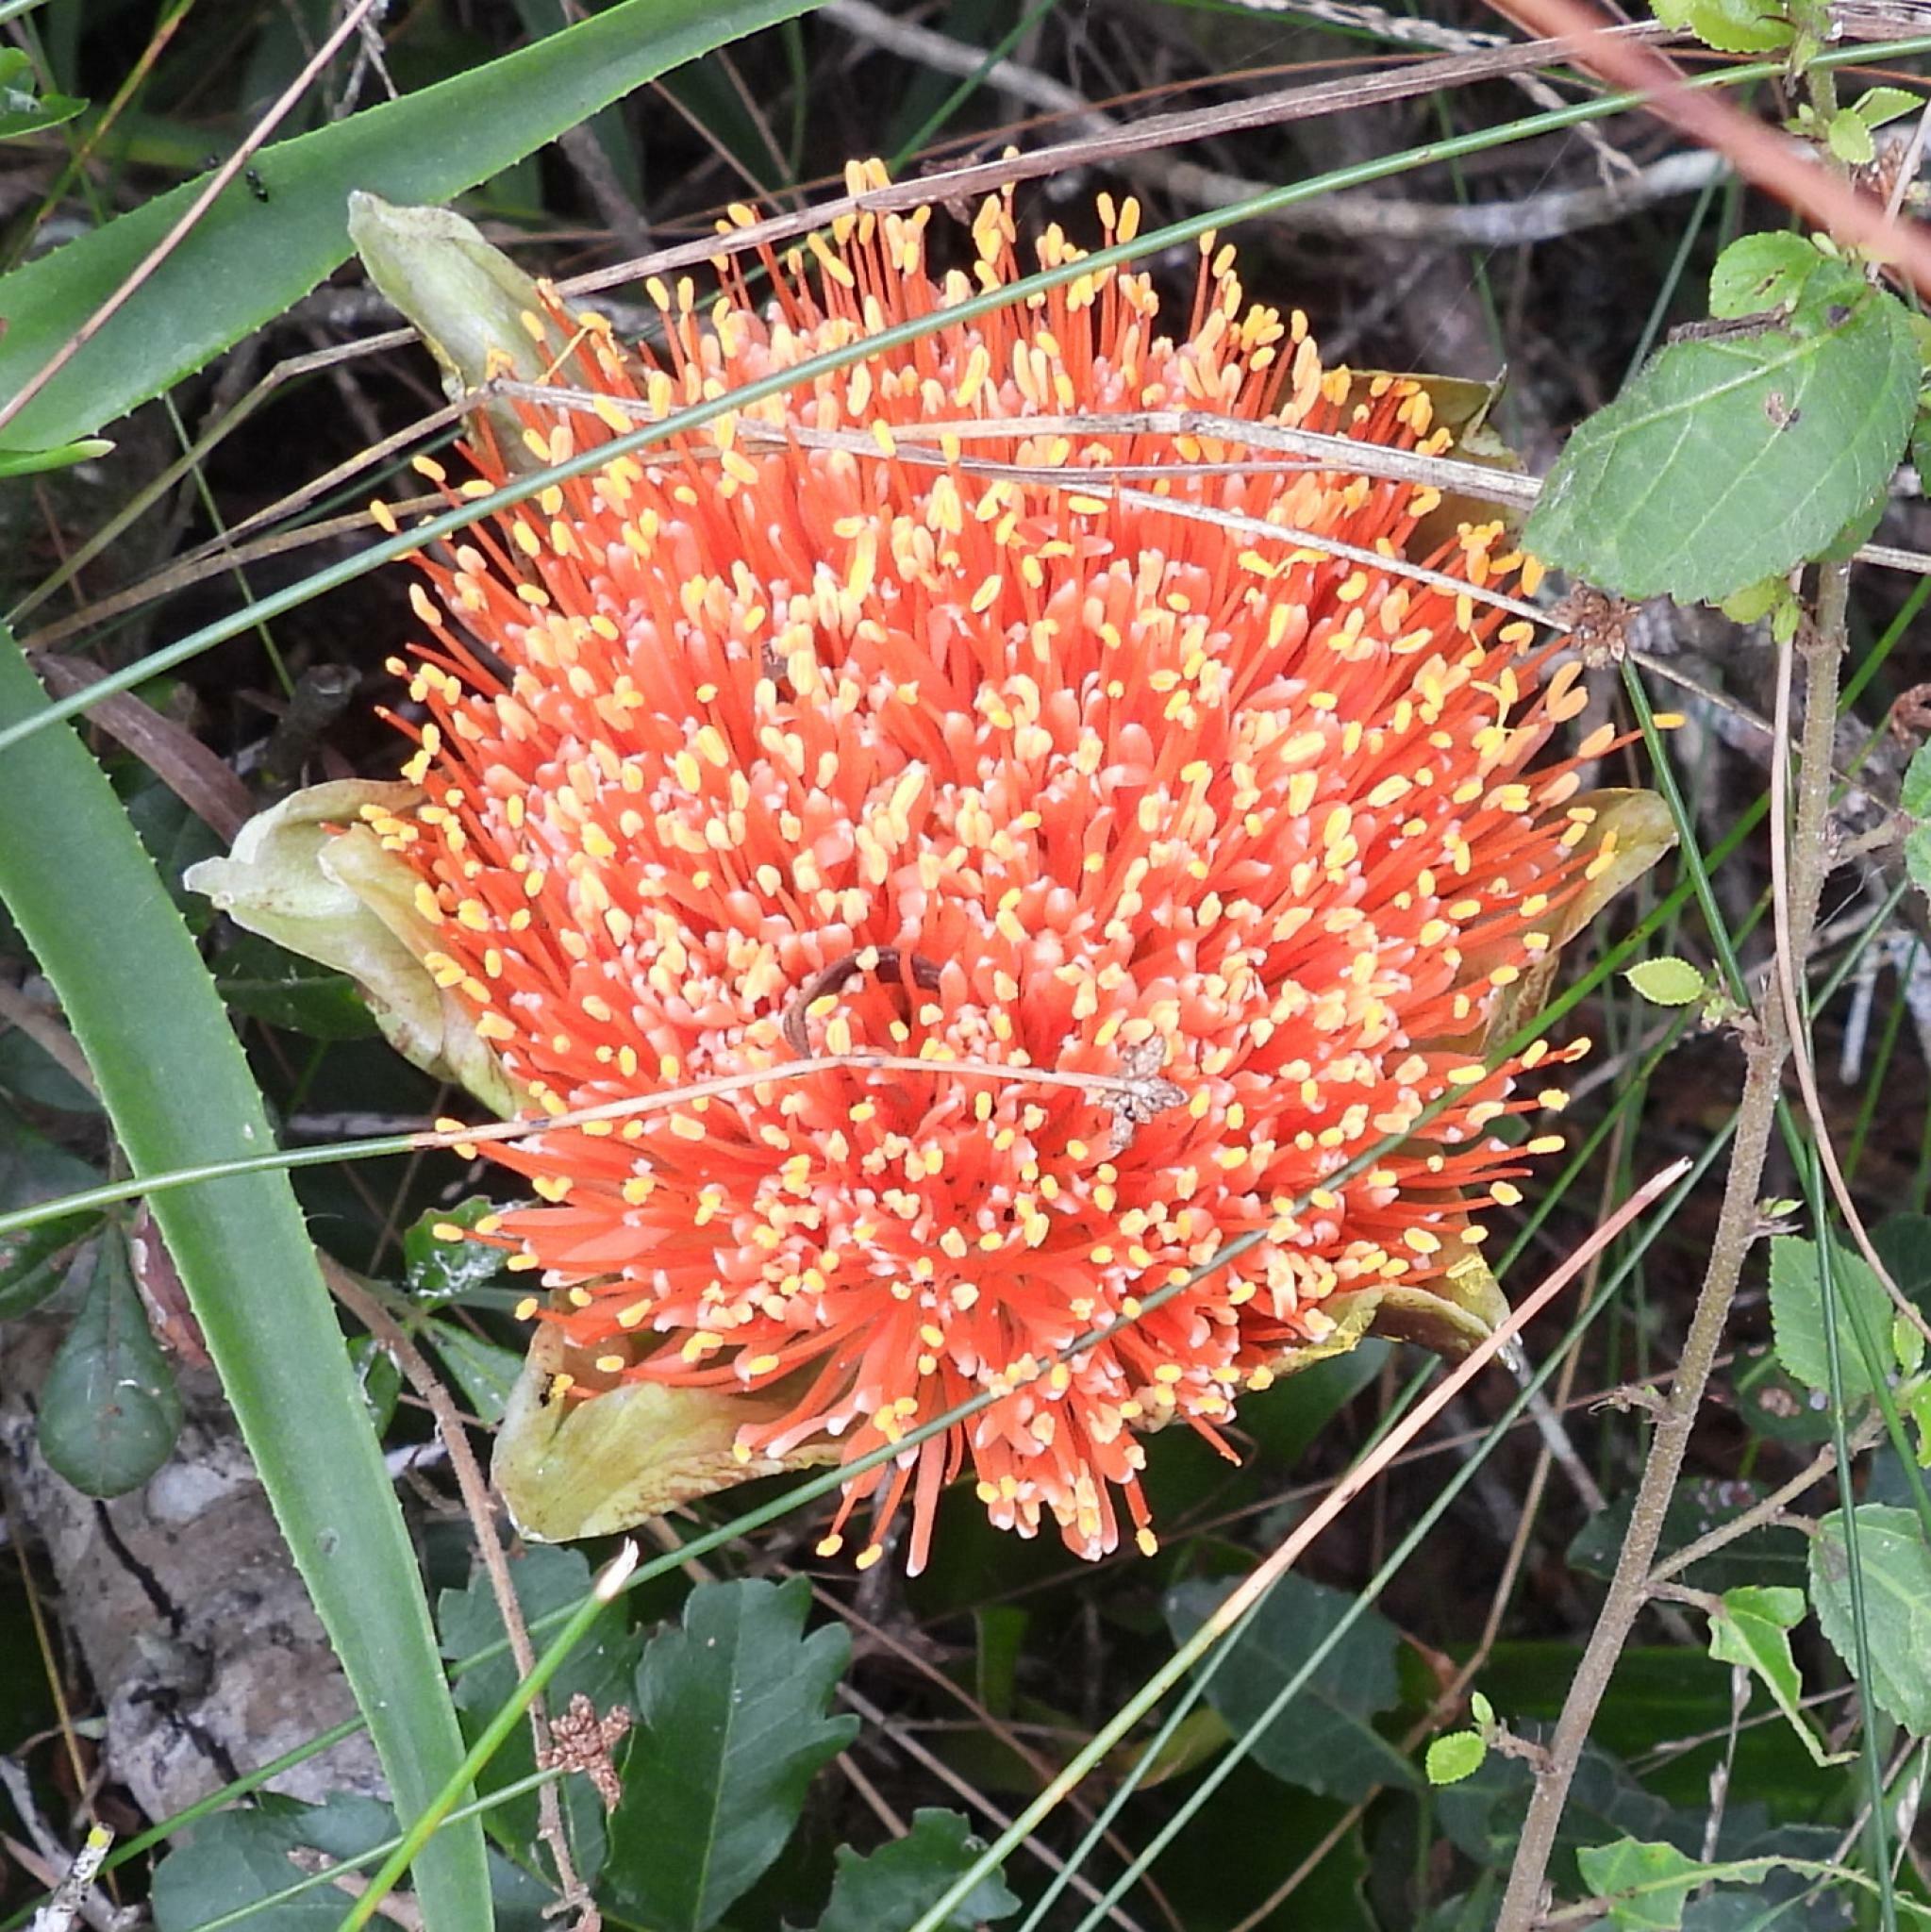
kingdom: Plantae
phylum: Tracheophyta
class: Liliopsida
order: Asparagales
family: Amaryllidaceae
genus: Scadoxus
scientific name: Scadoxus puniceus
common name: Royal-paintbrush
